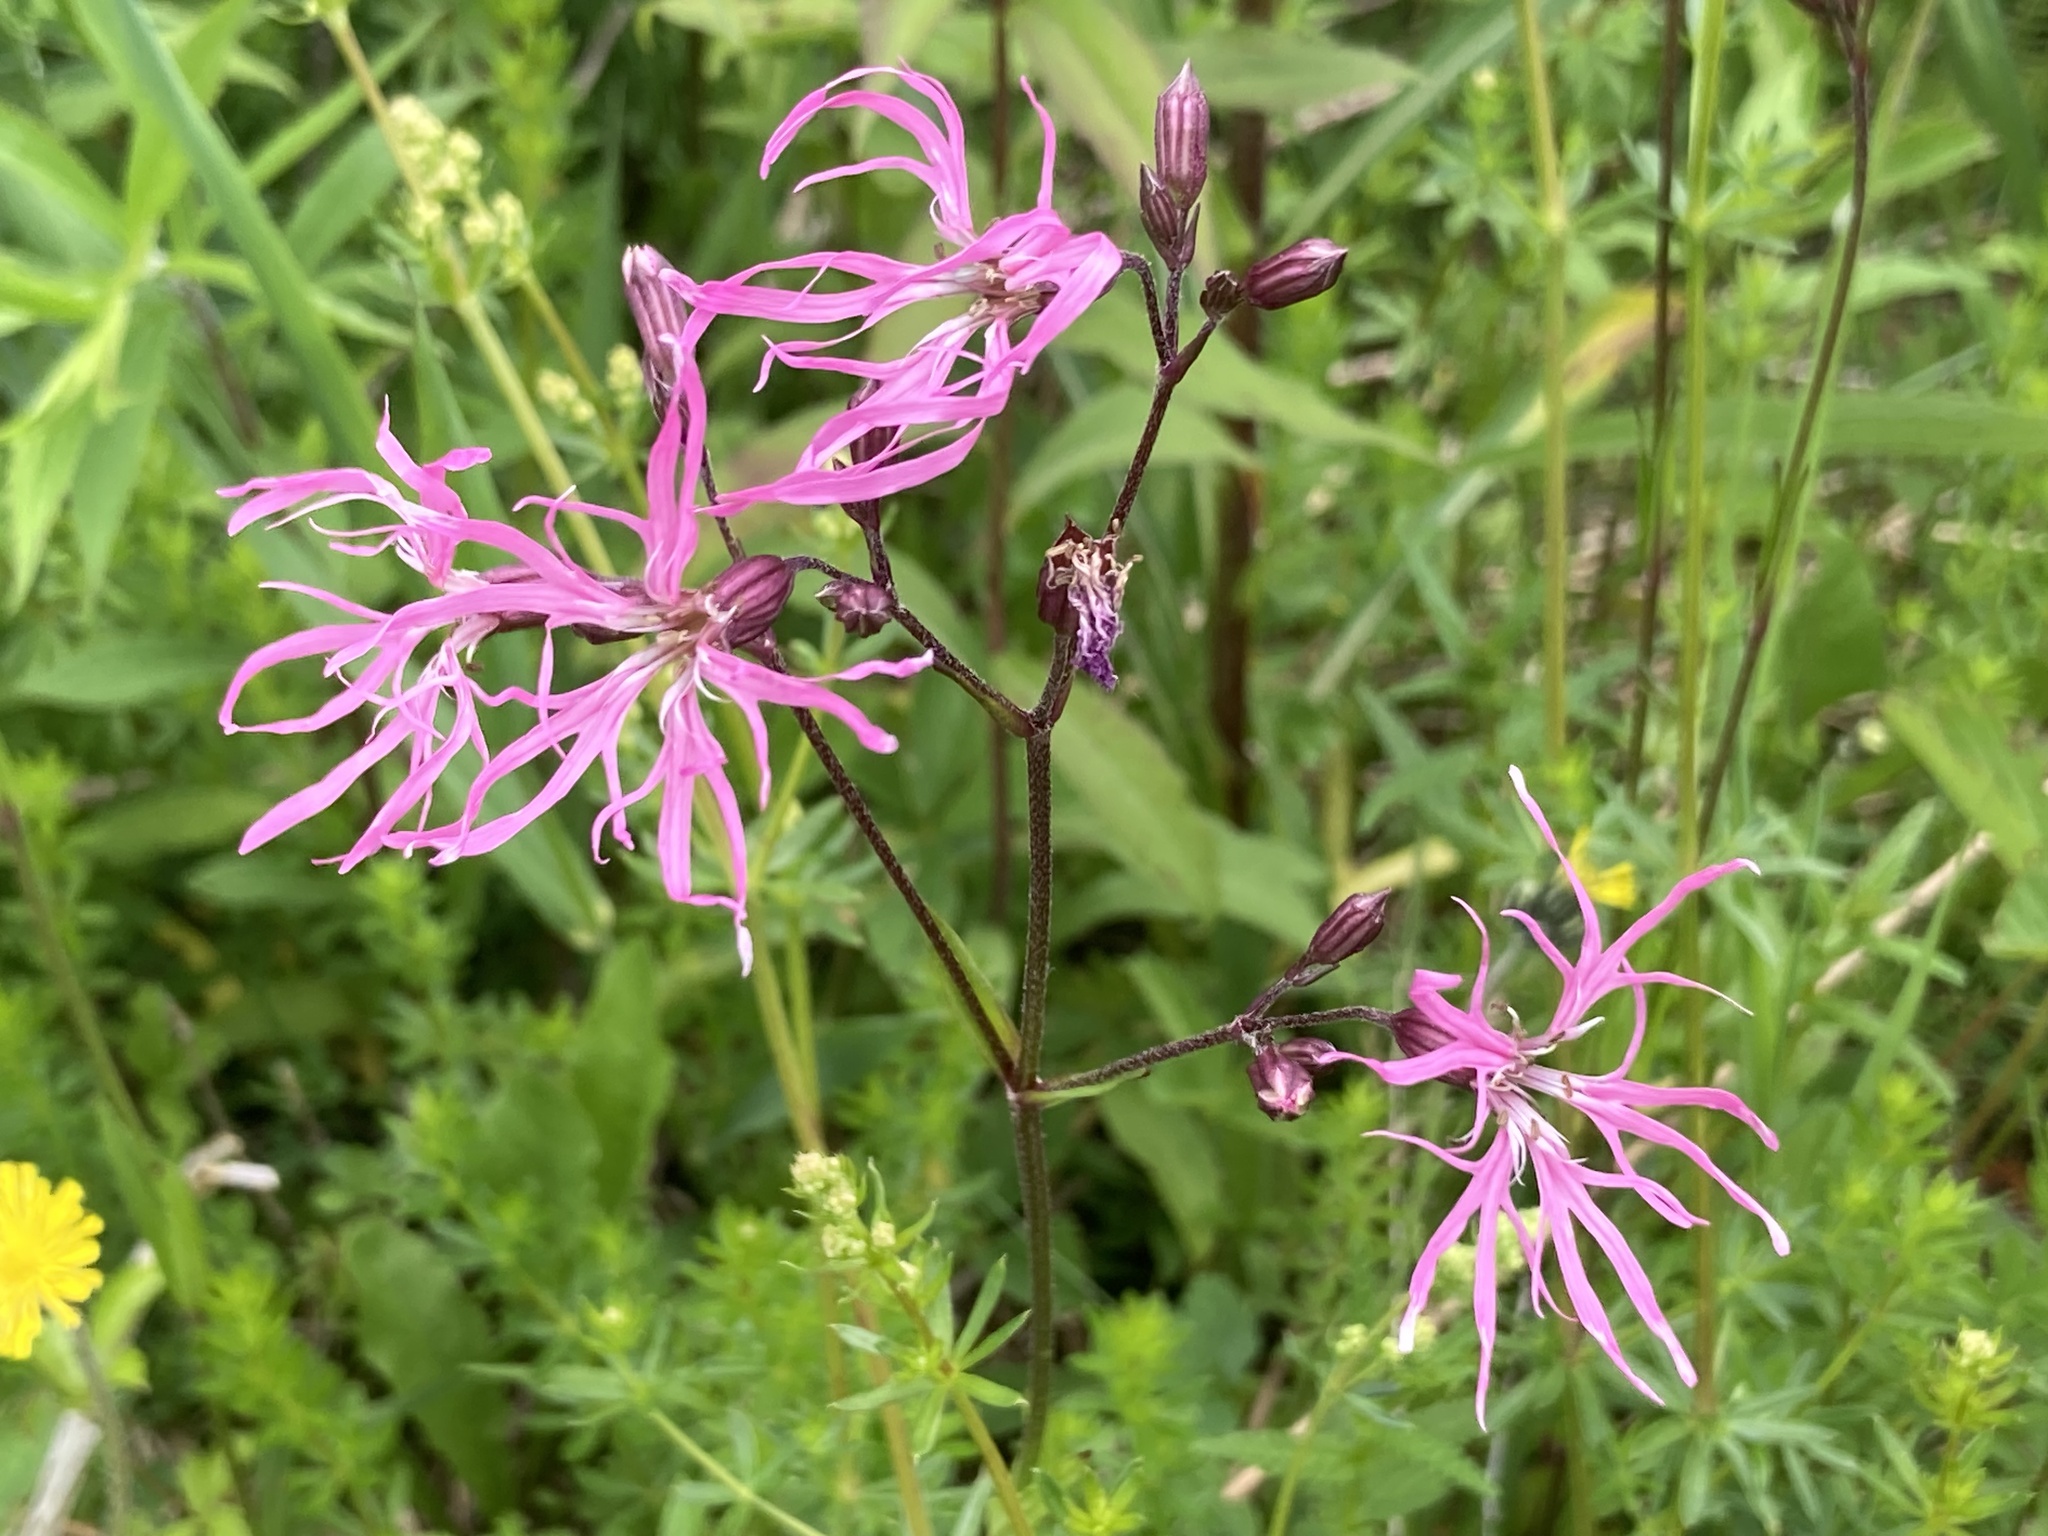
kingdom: Plantae
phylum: Tracheophyta
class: Magnoliopsida
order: Caryophyllales
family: Caryophyllaceae
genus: Silene
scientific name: Silene flos-cuculi
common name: Ragged-robin
